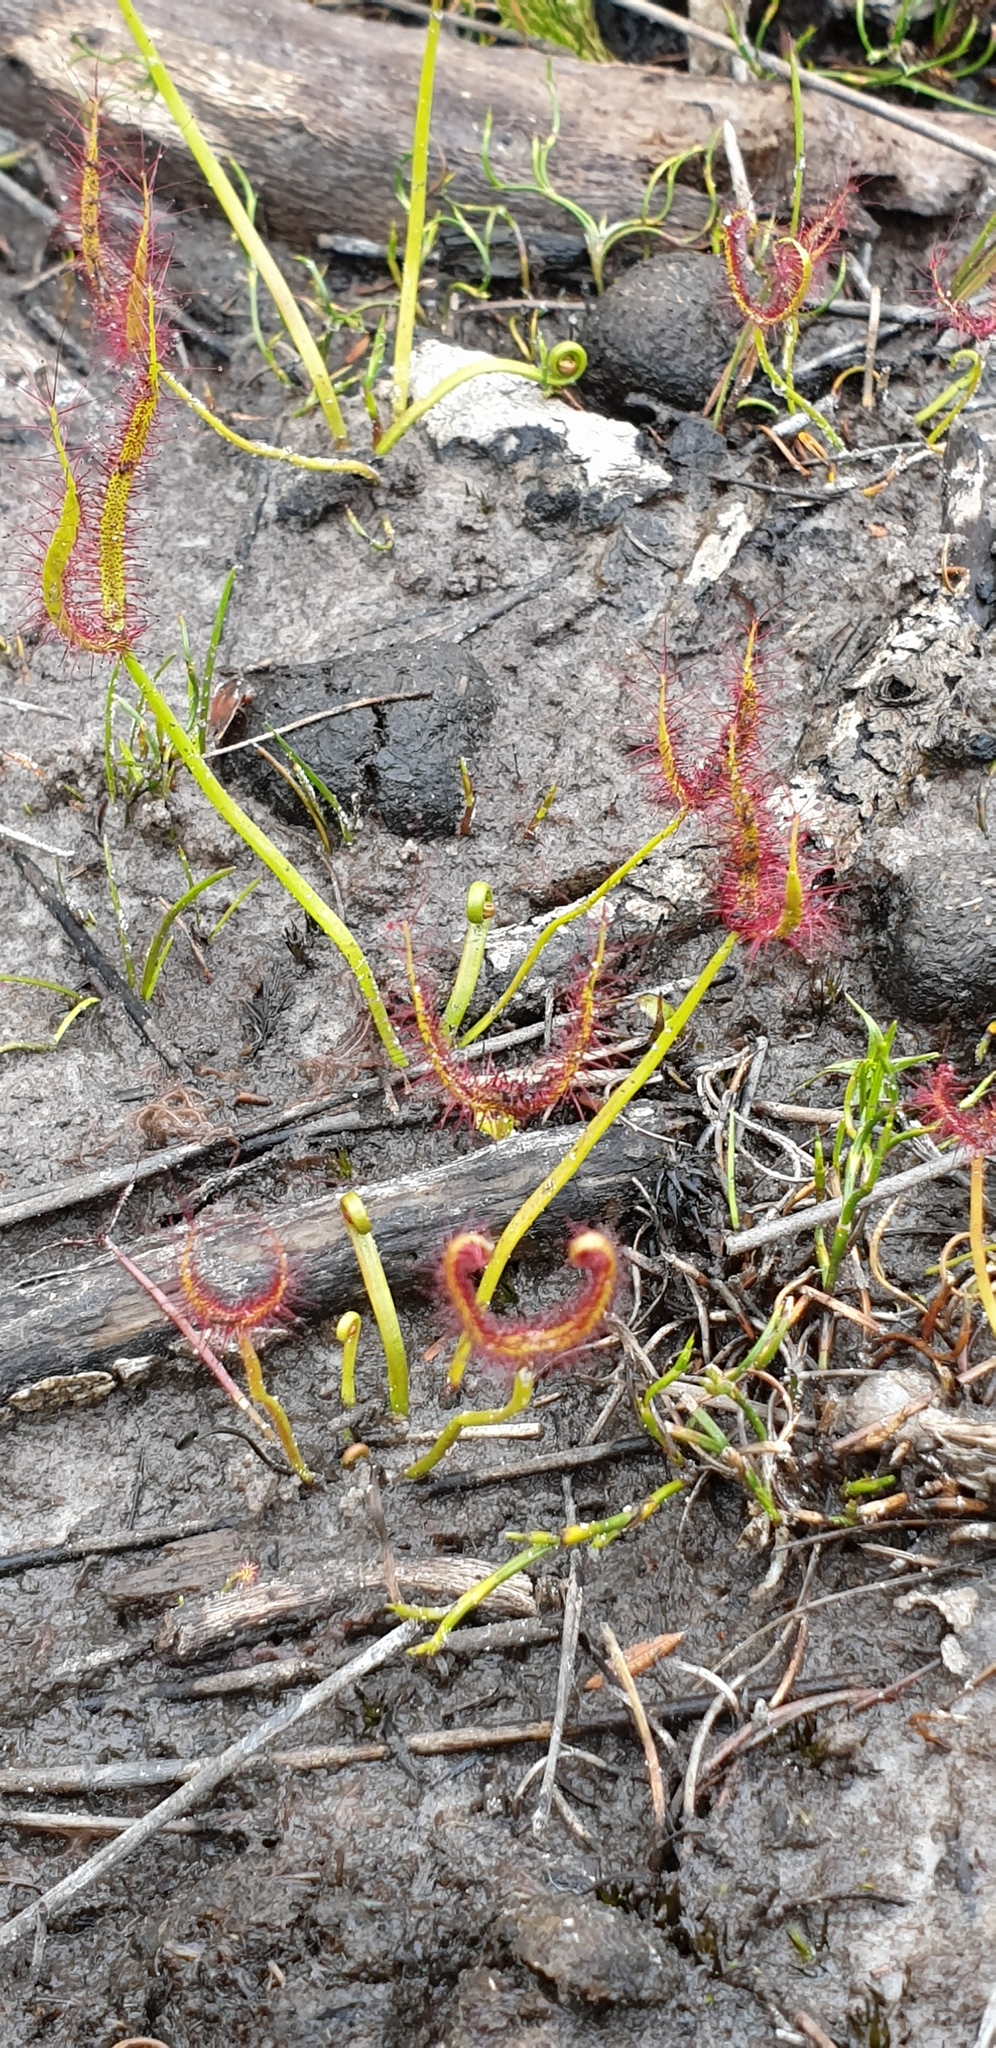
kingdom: Plantae
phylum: Tracheophyta
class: Magnoliopsida
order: Caryophyllales
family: Droseraceae
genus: Drosera
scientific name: Drosera binata
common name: Forked sundew
